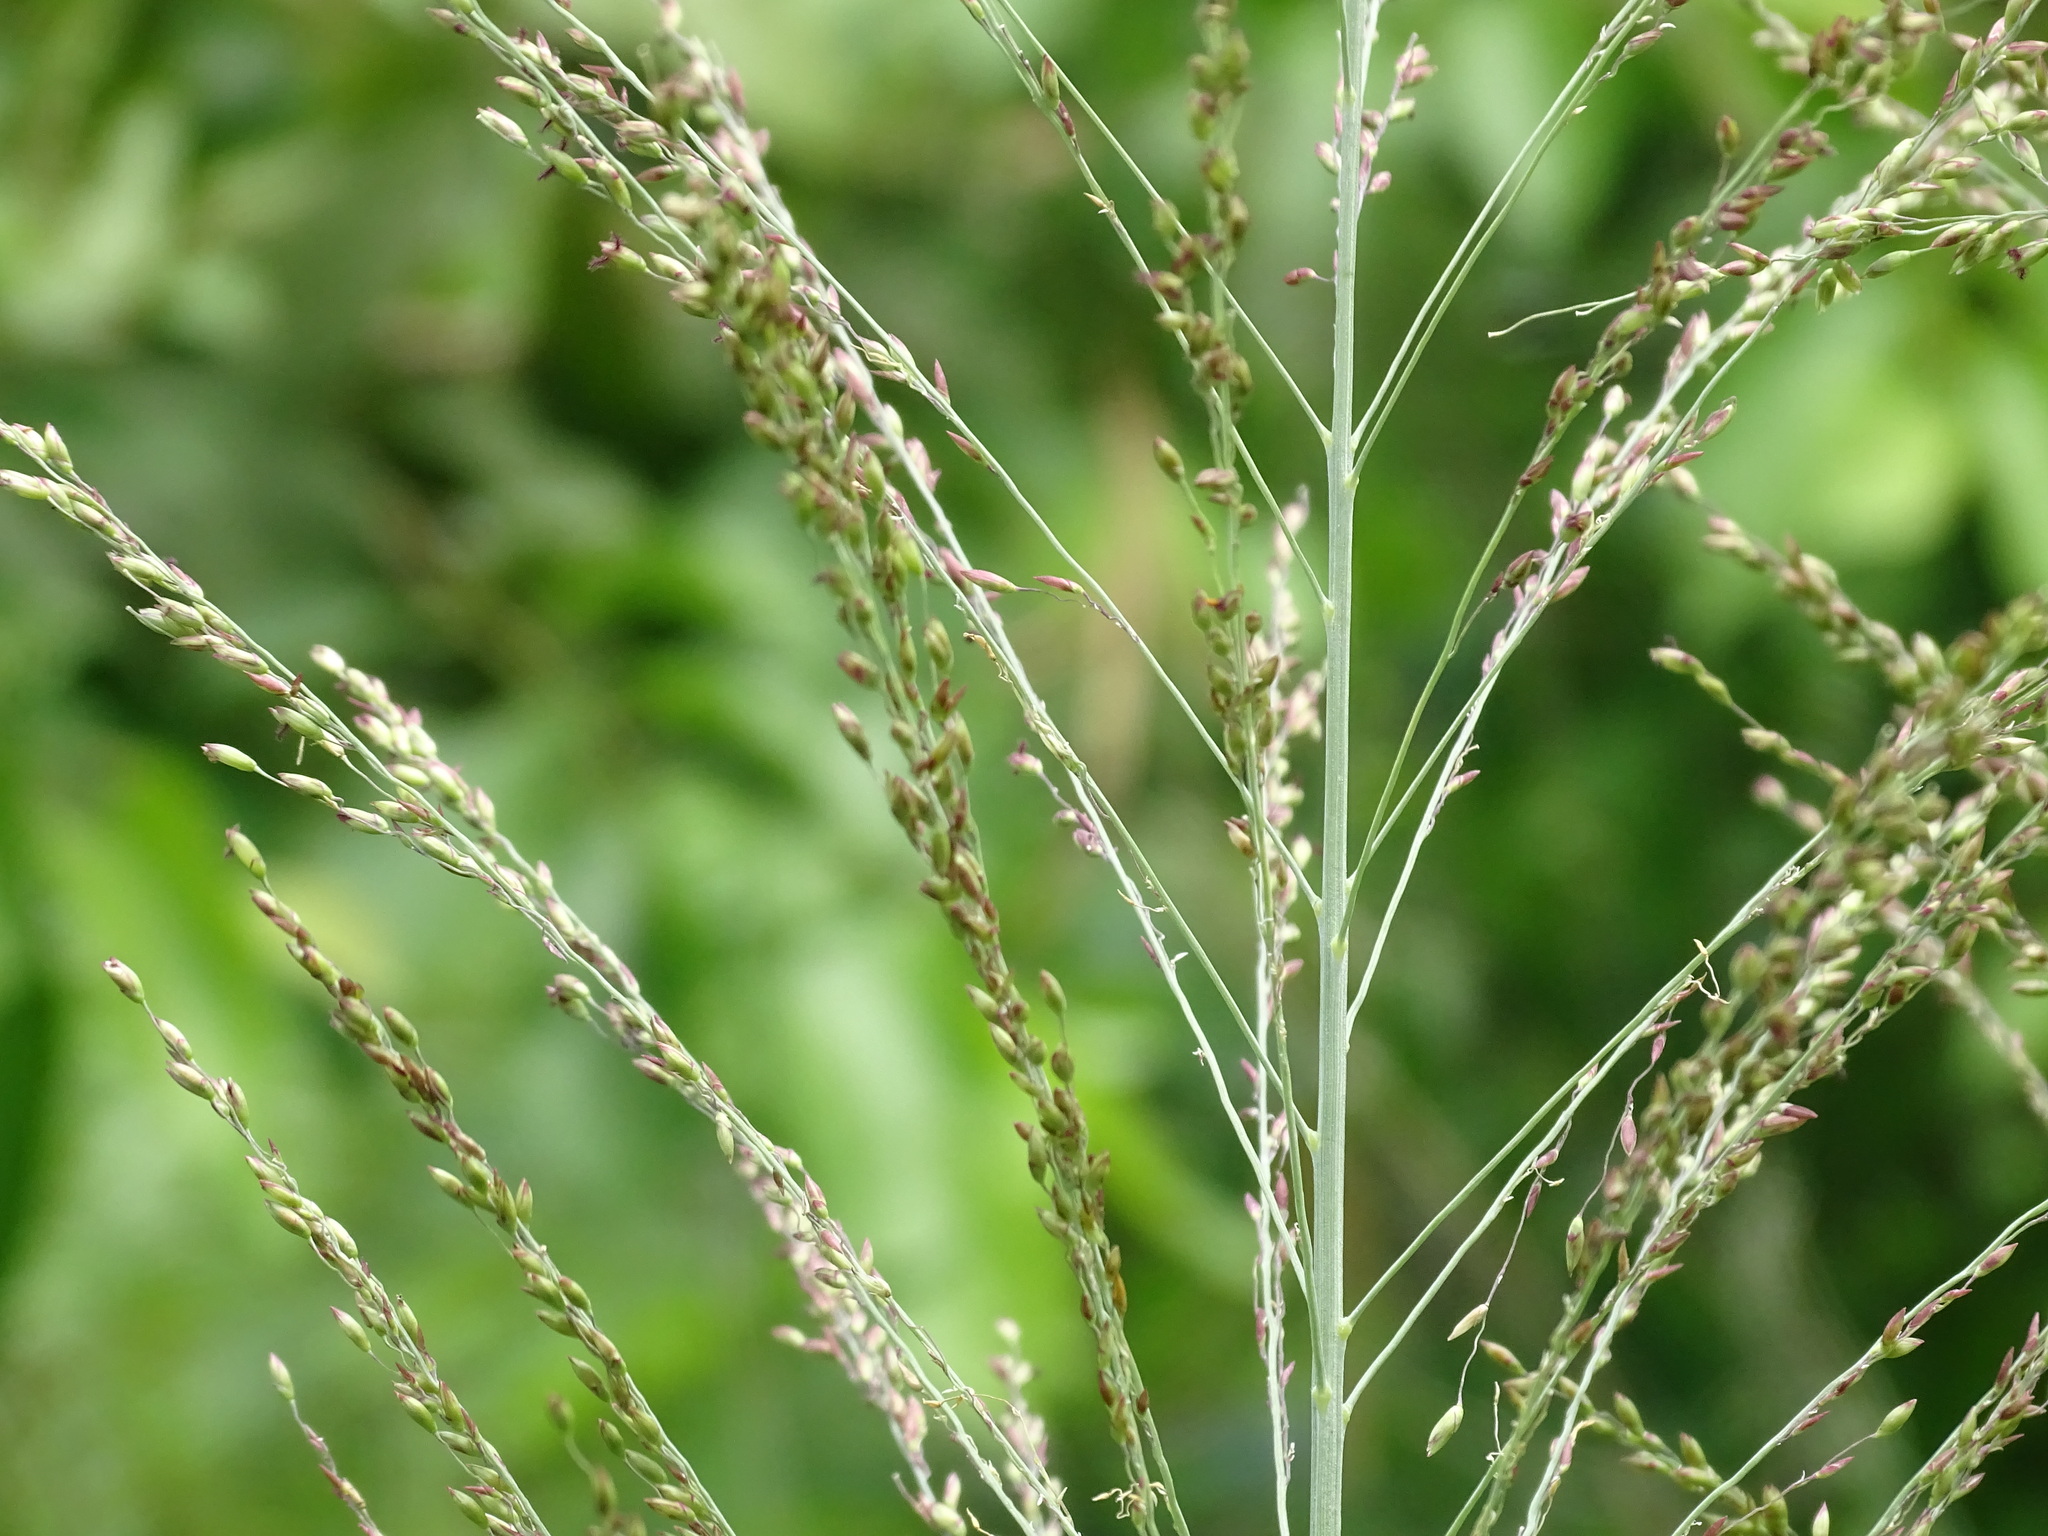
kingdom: Plantae
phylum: Tracheophyta
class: Liliopsida
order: Poales
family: Poaceae
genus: Megathyrsus
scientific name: Megathyrsus maximus
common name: Guineagrass
